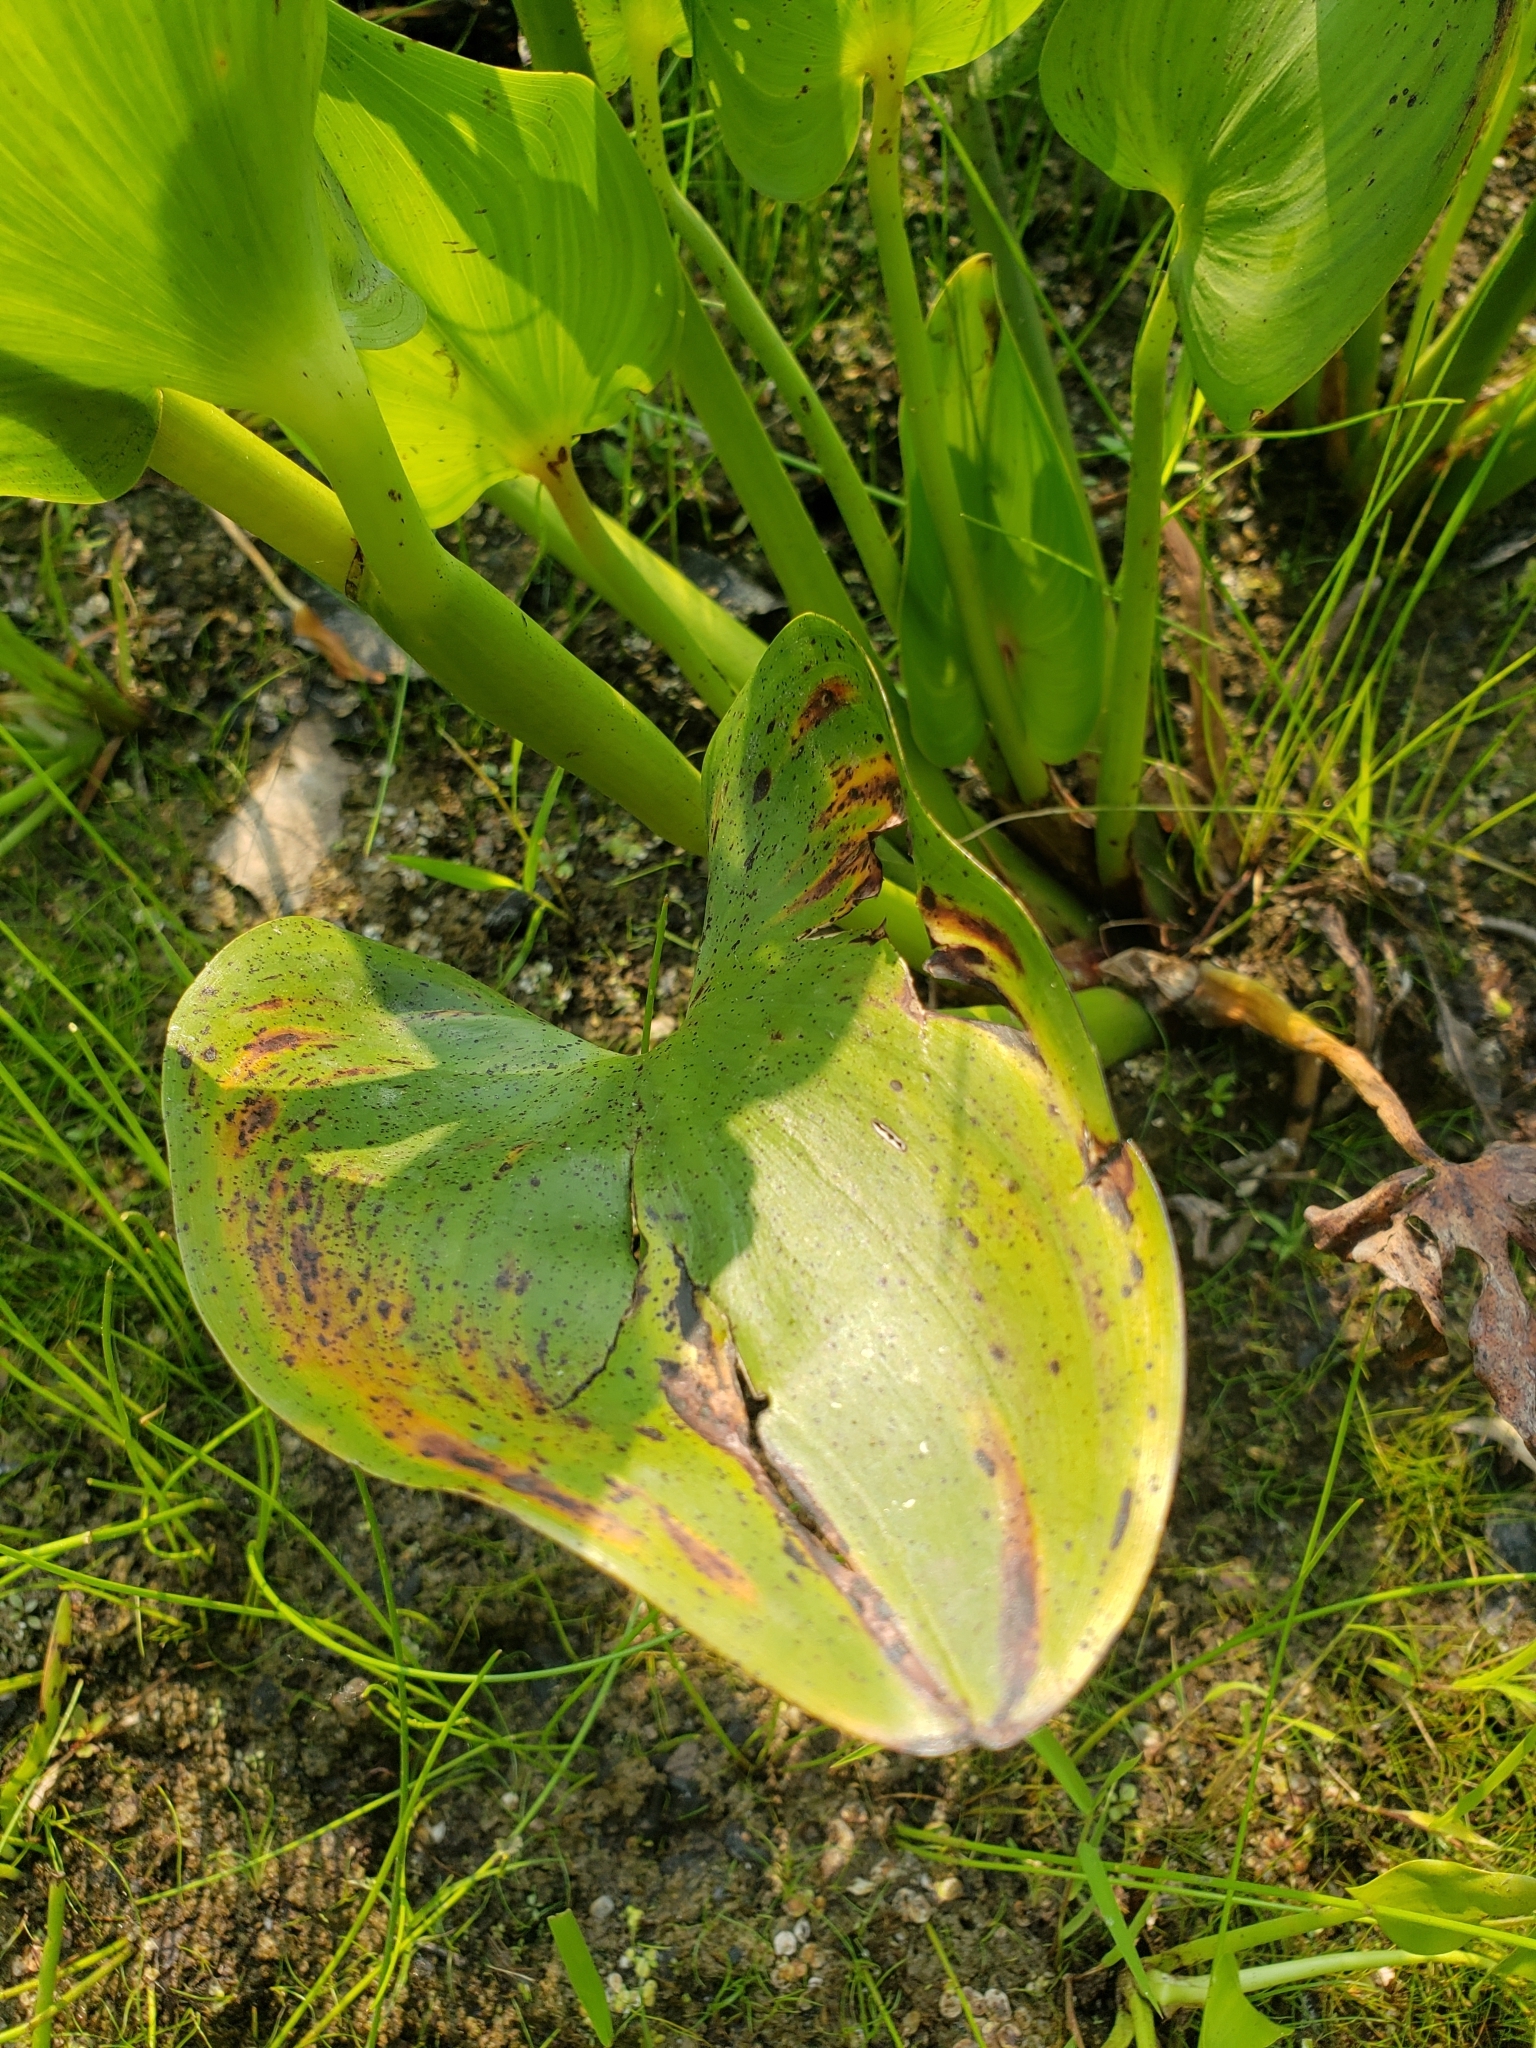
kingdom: Plantae
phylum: Tracheophyta
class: Liliopsida
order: Commelinales
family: Pontederiaceae
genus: Pontederia
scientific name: Pontederia cordata
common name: Pickerelweed
